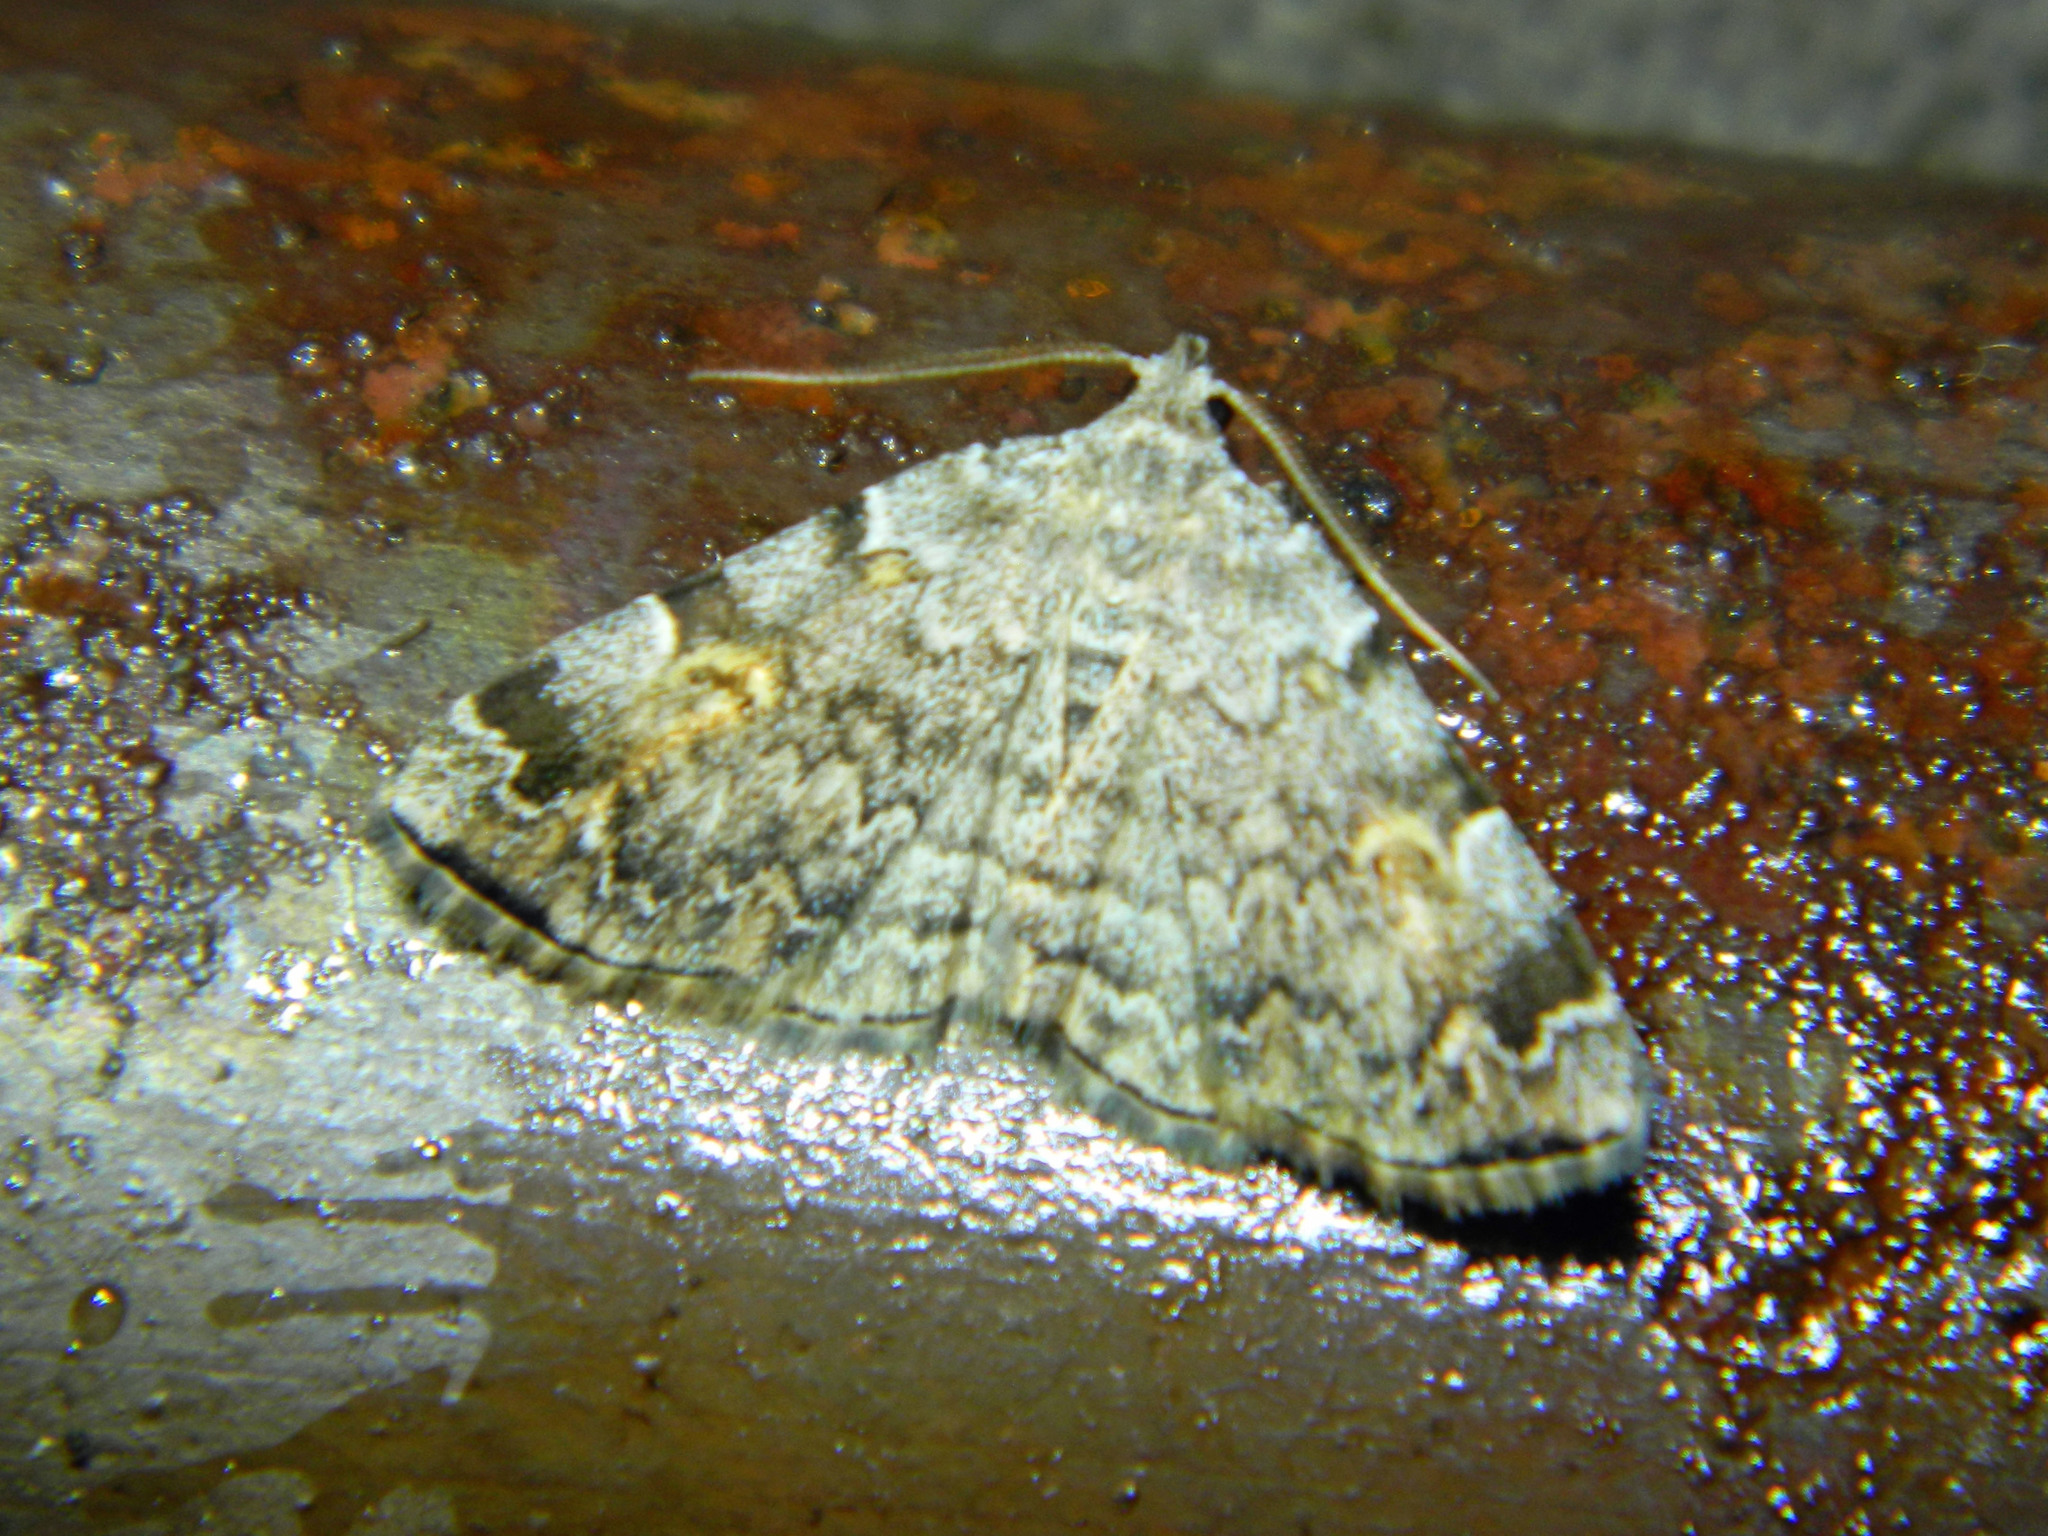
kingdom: Animalia
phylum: Arthropoda
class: Insecta
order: Lepidoptera
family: Erebidae
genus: Idia
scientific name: Idia americalis
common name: American idia moth
